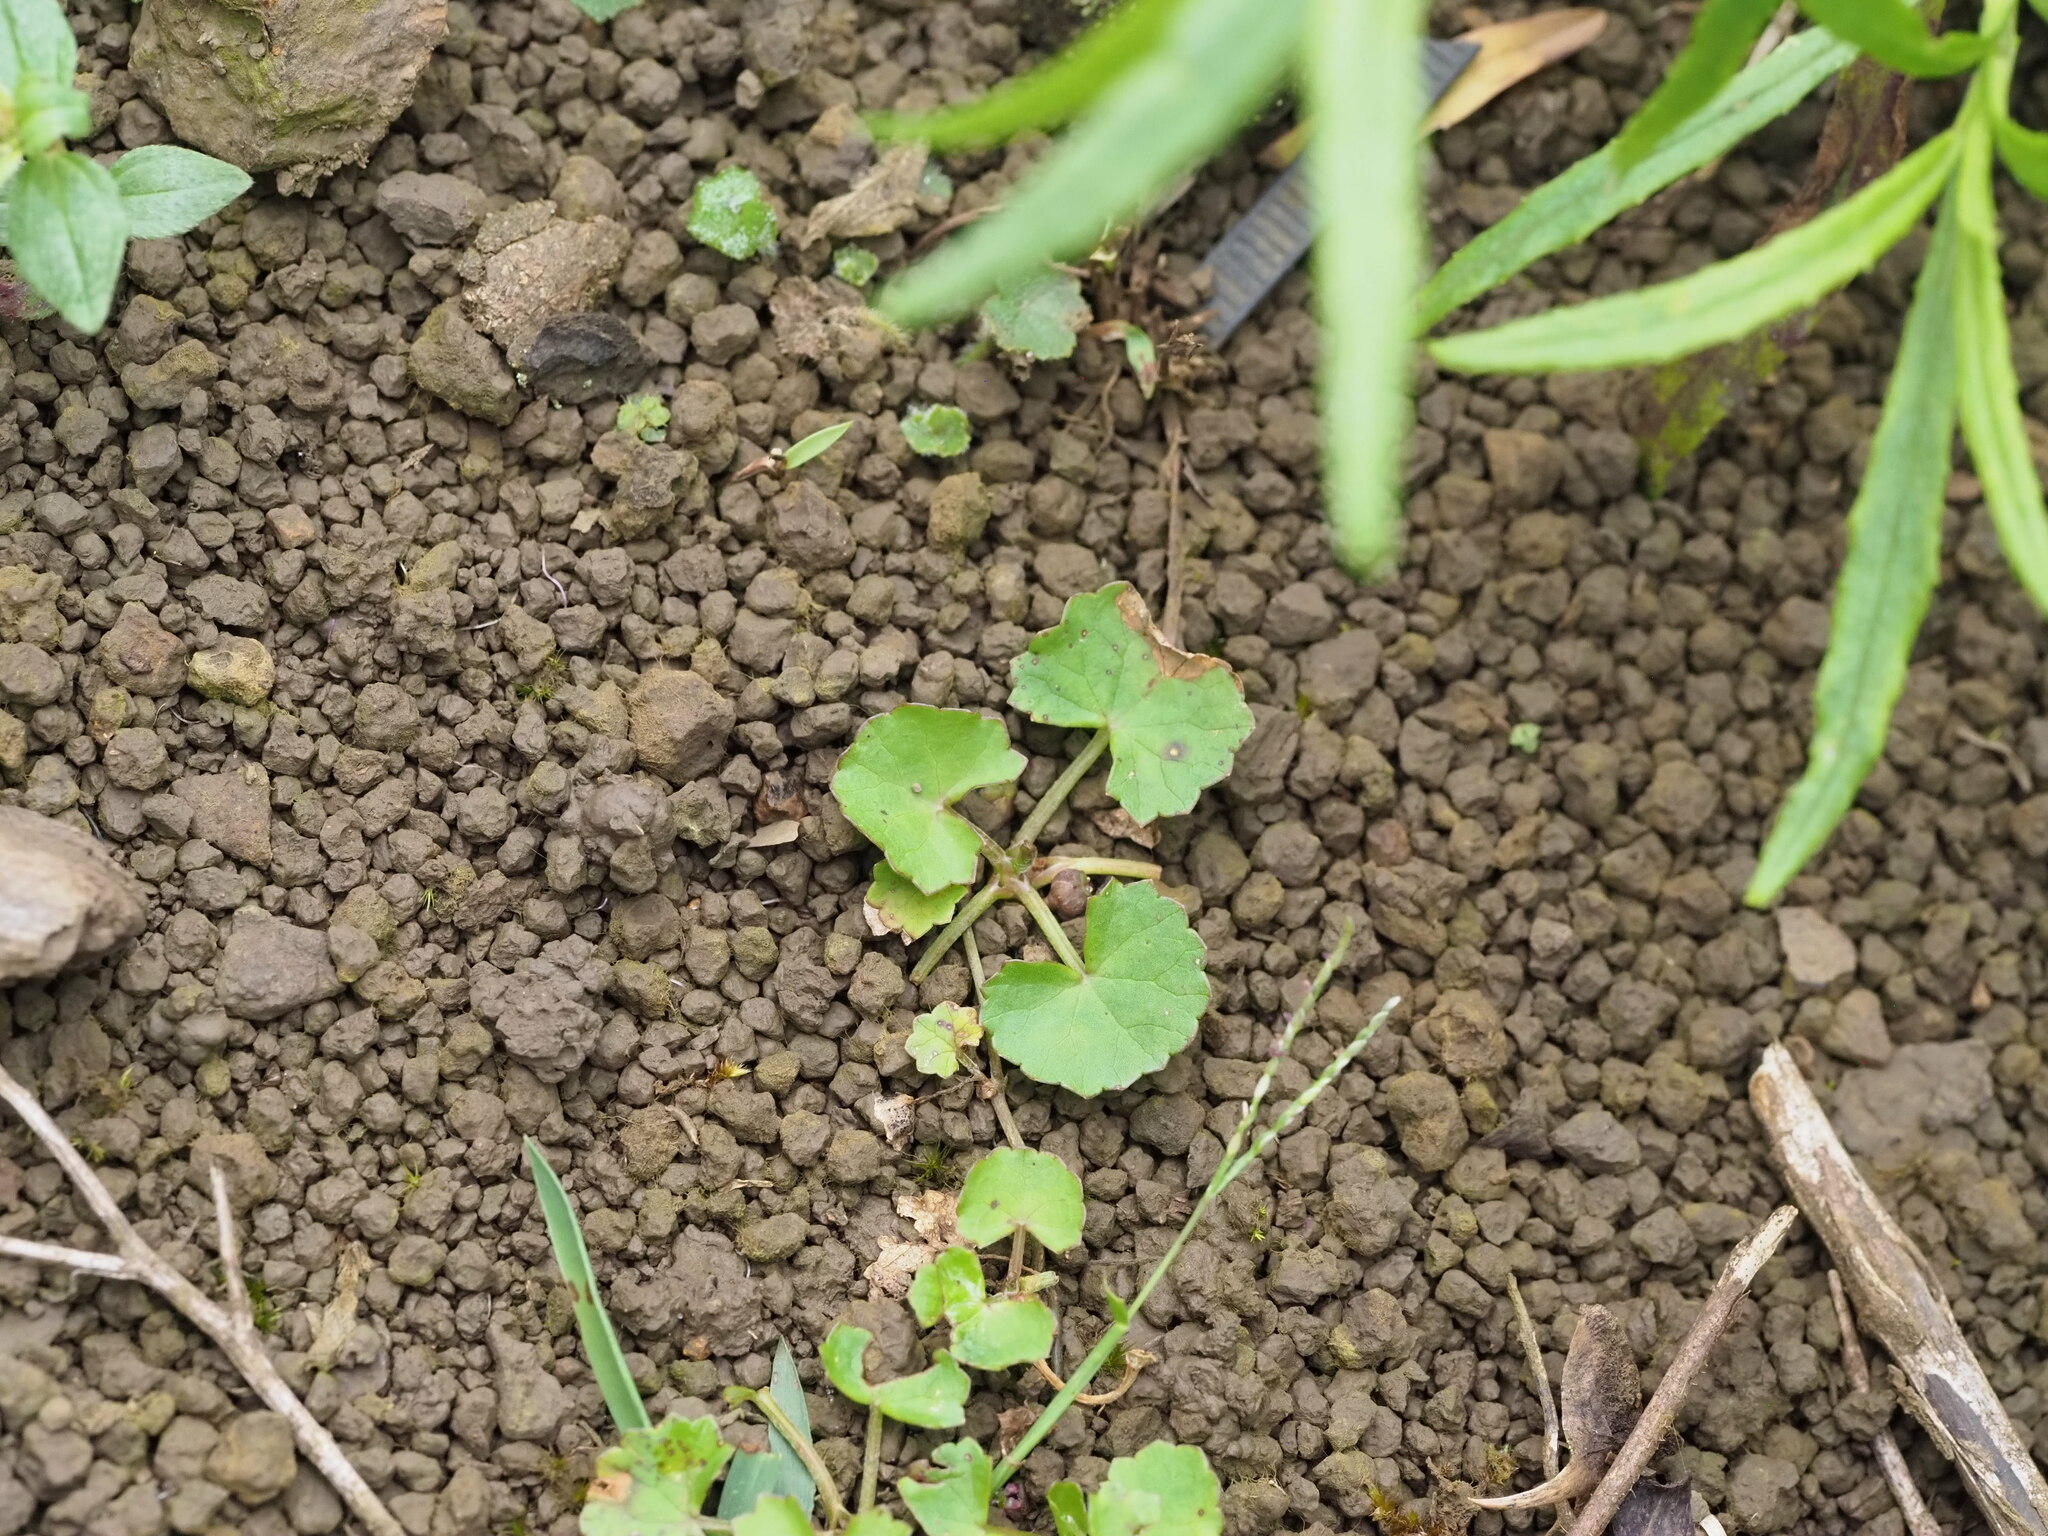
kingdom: Plantae
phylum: Tracheophyta
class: Magnoliopsida
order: Apiales
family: Apiaceae
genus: Centella
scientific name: Centella asiatica
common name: Spadeleaf
